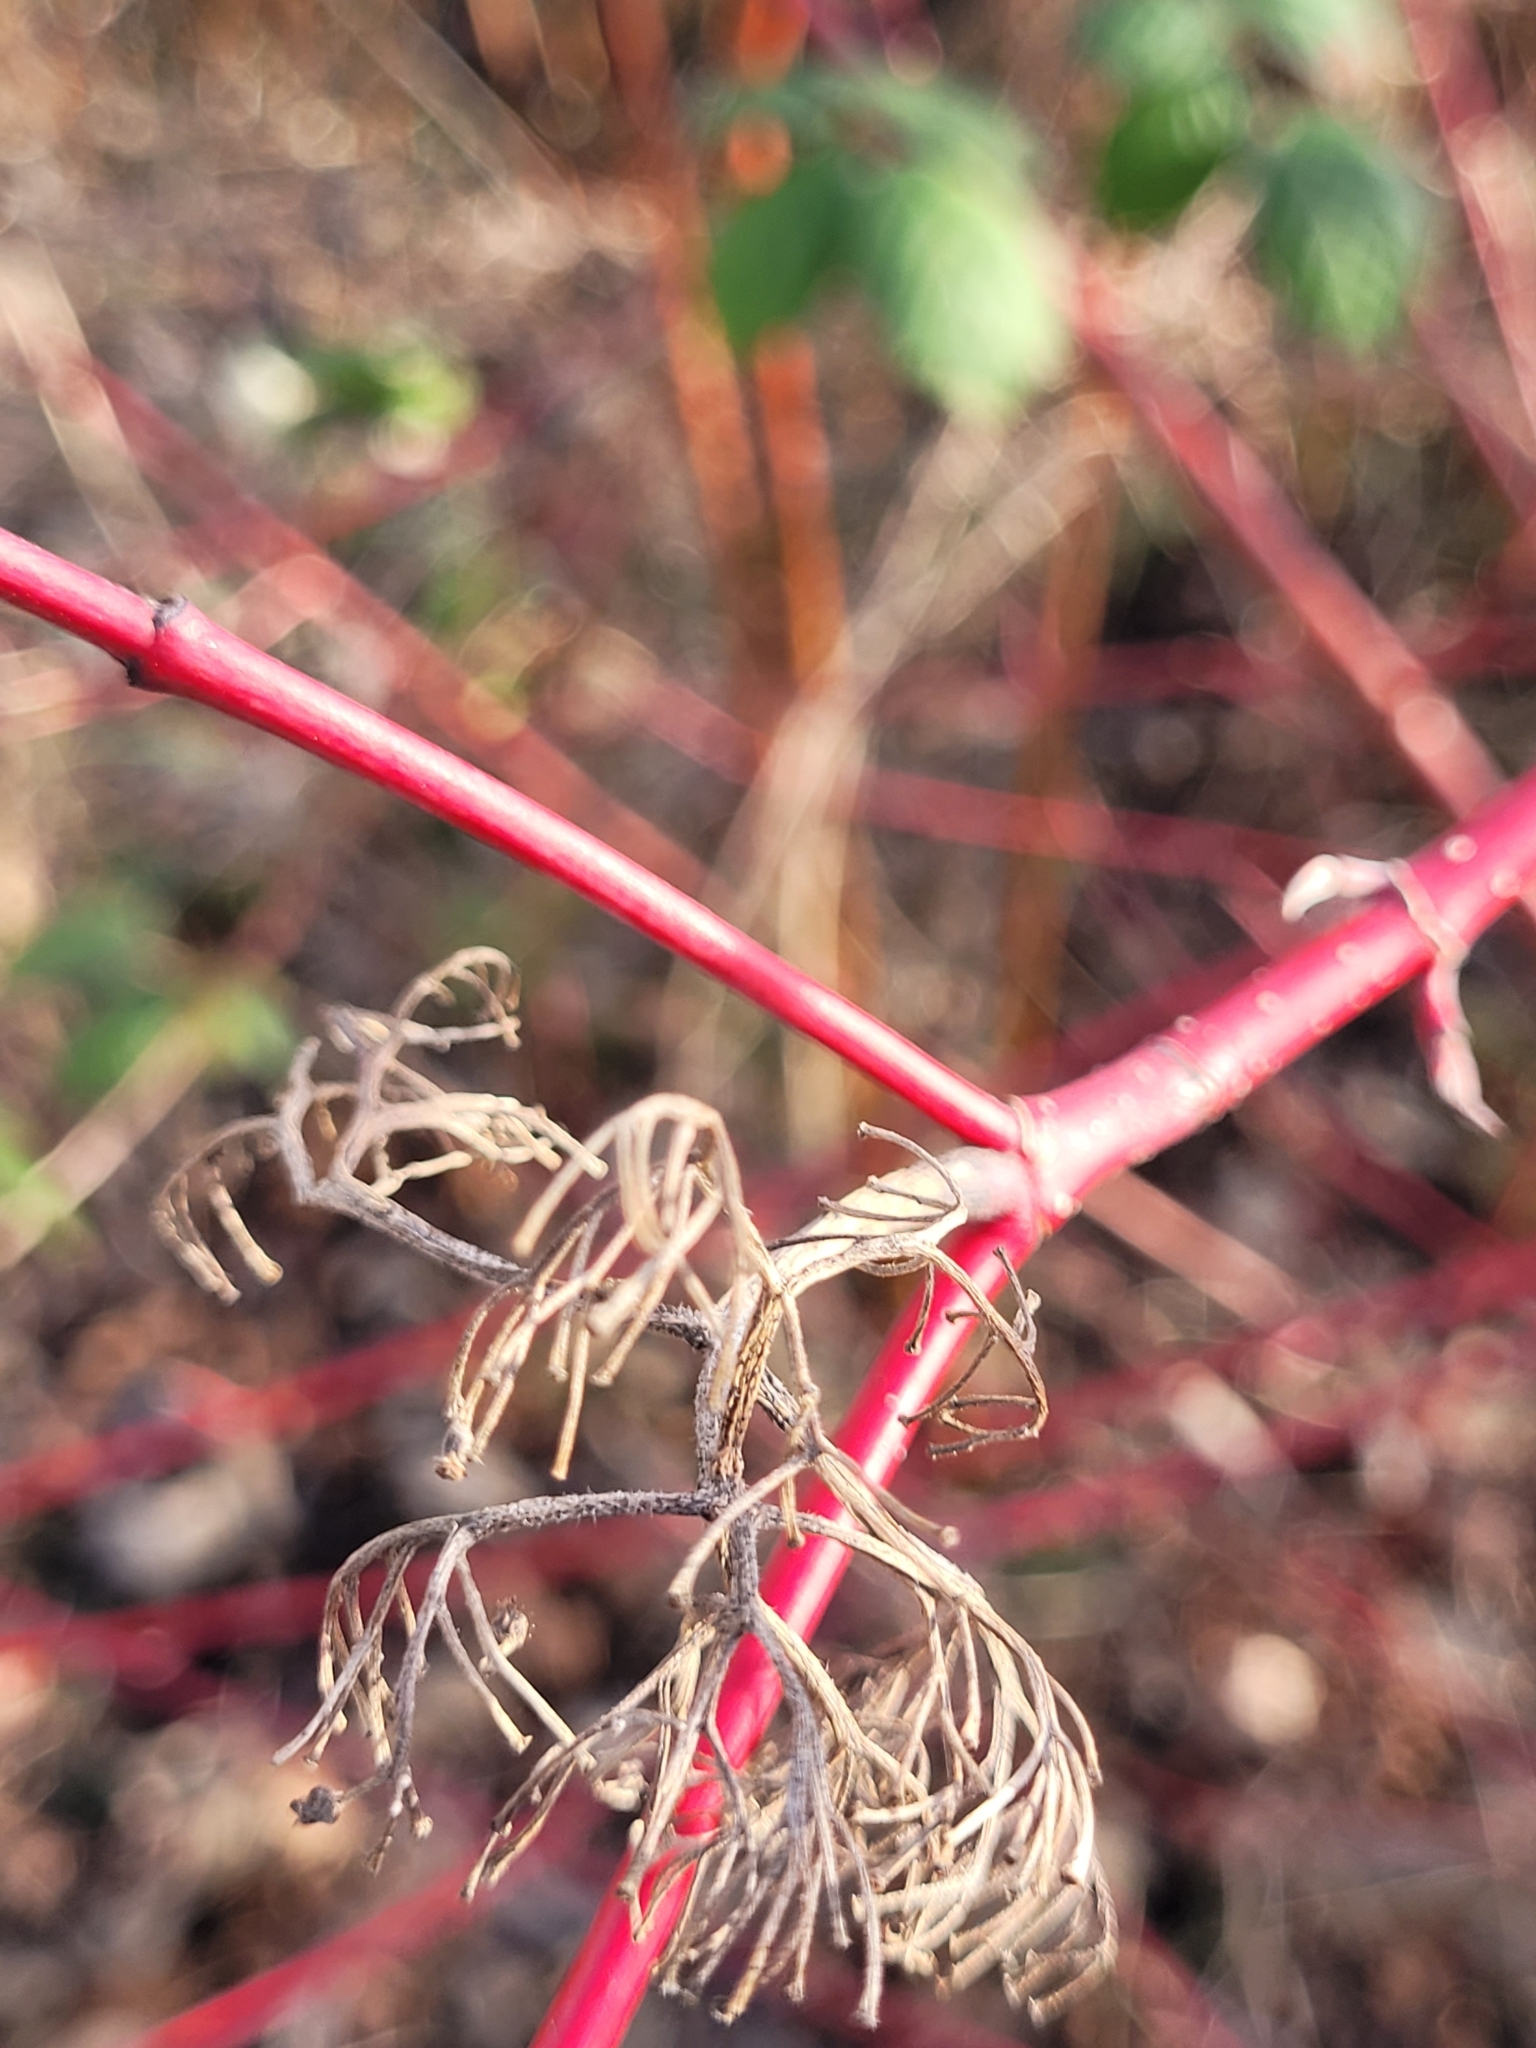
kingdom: Plantae
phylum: Tracheophyta
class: Magnoliopsida
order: Cornales
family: Cornaceae
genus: Cornus
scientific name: Cornus sericea
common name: Red-osier dogwood
